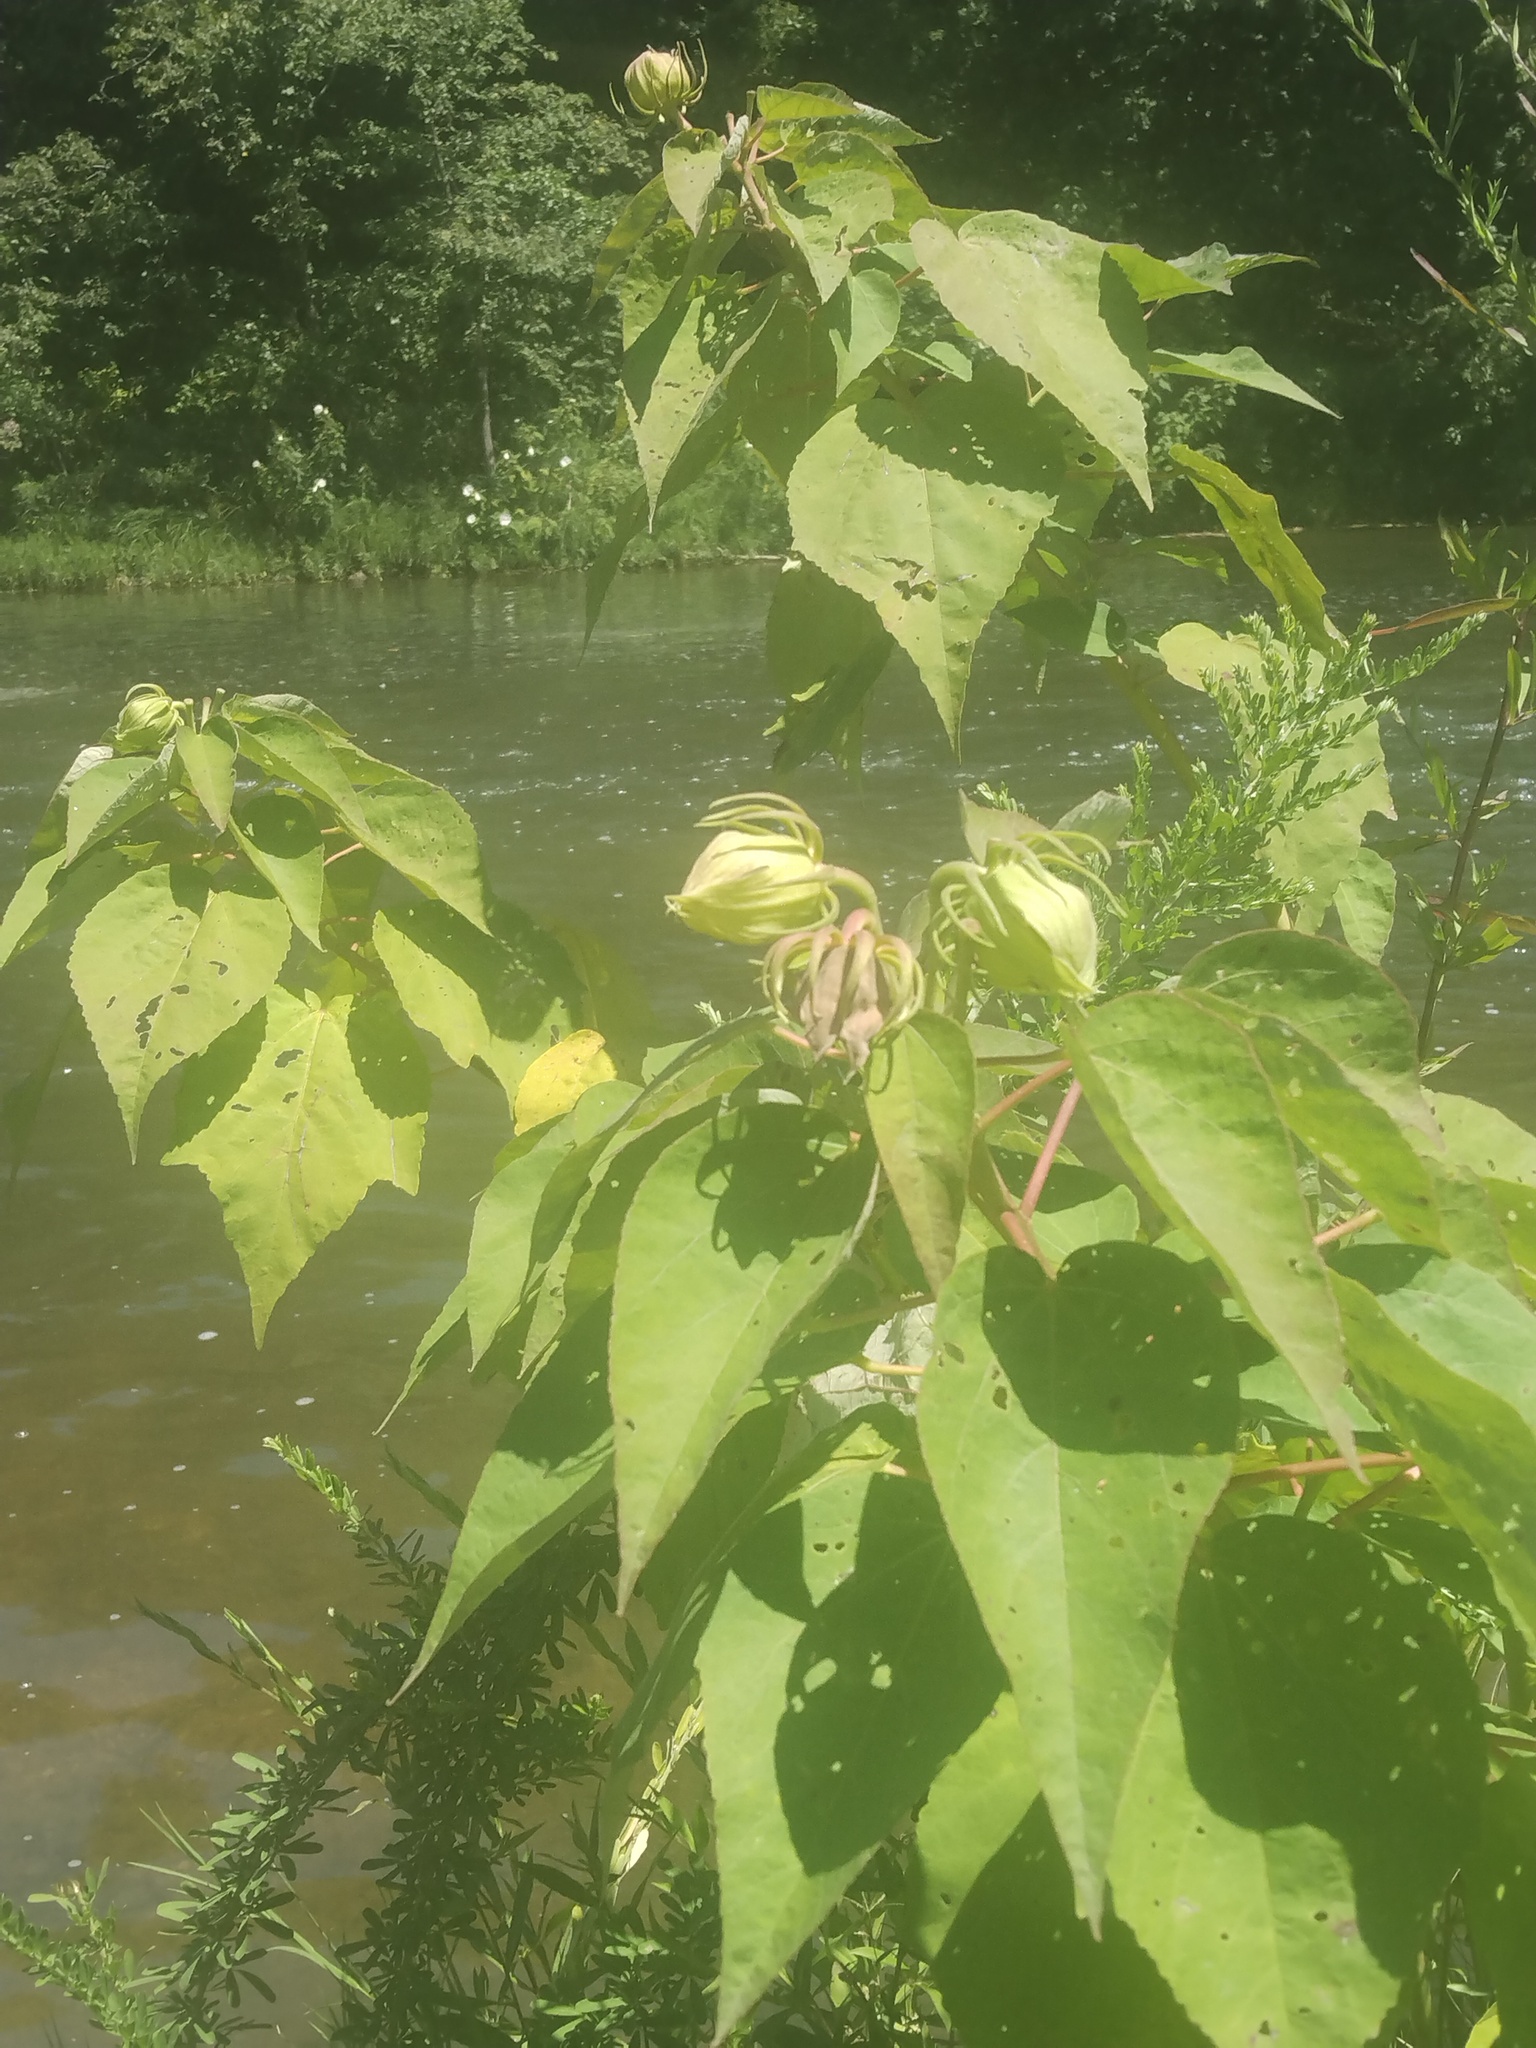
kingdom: Plantae
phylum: Tracheophyta
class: Magnoliopsida
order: Malvales
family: Malvaceae
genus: Hibiscus
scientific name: Hibiscus moscheutos
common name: Common rose-mallow
